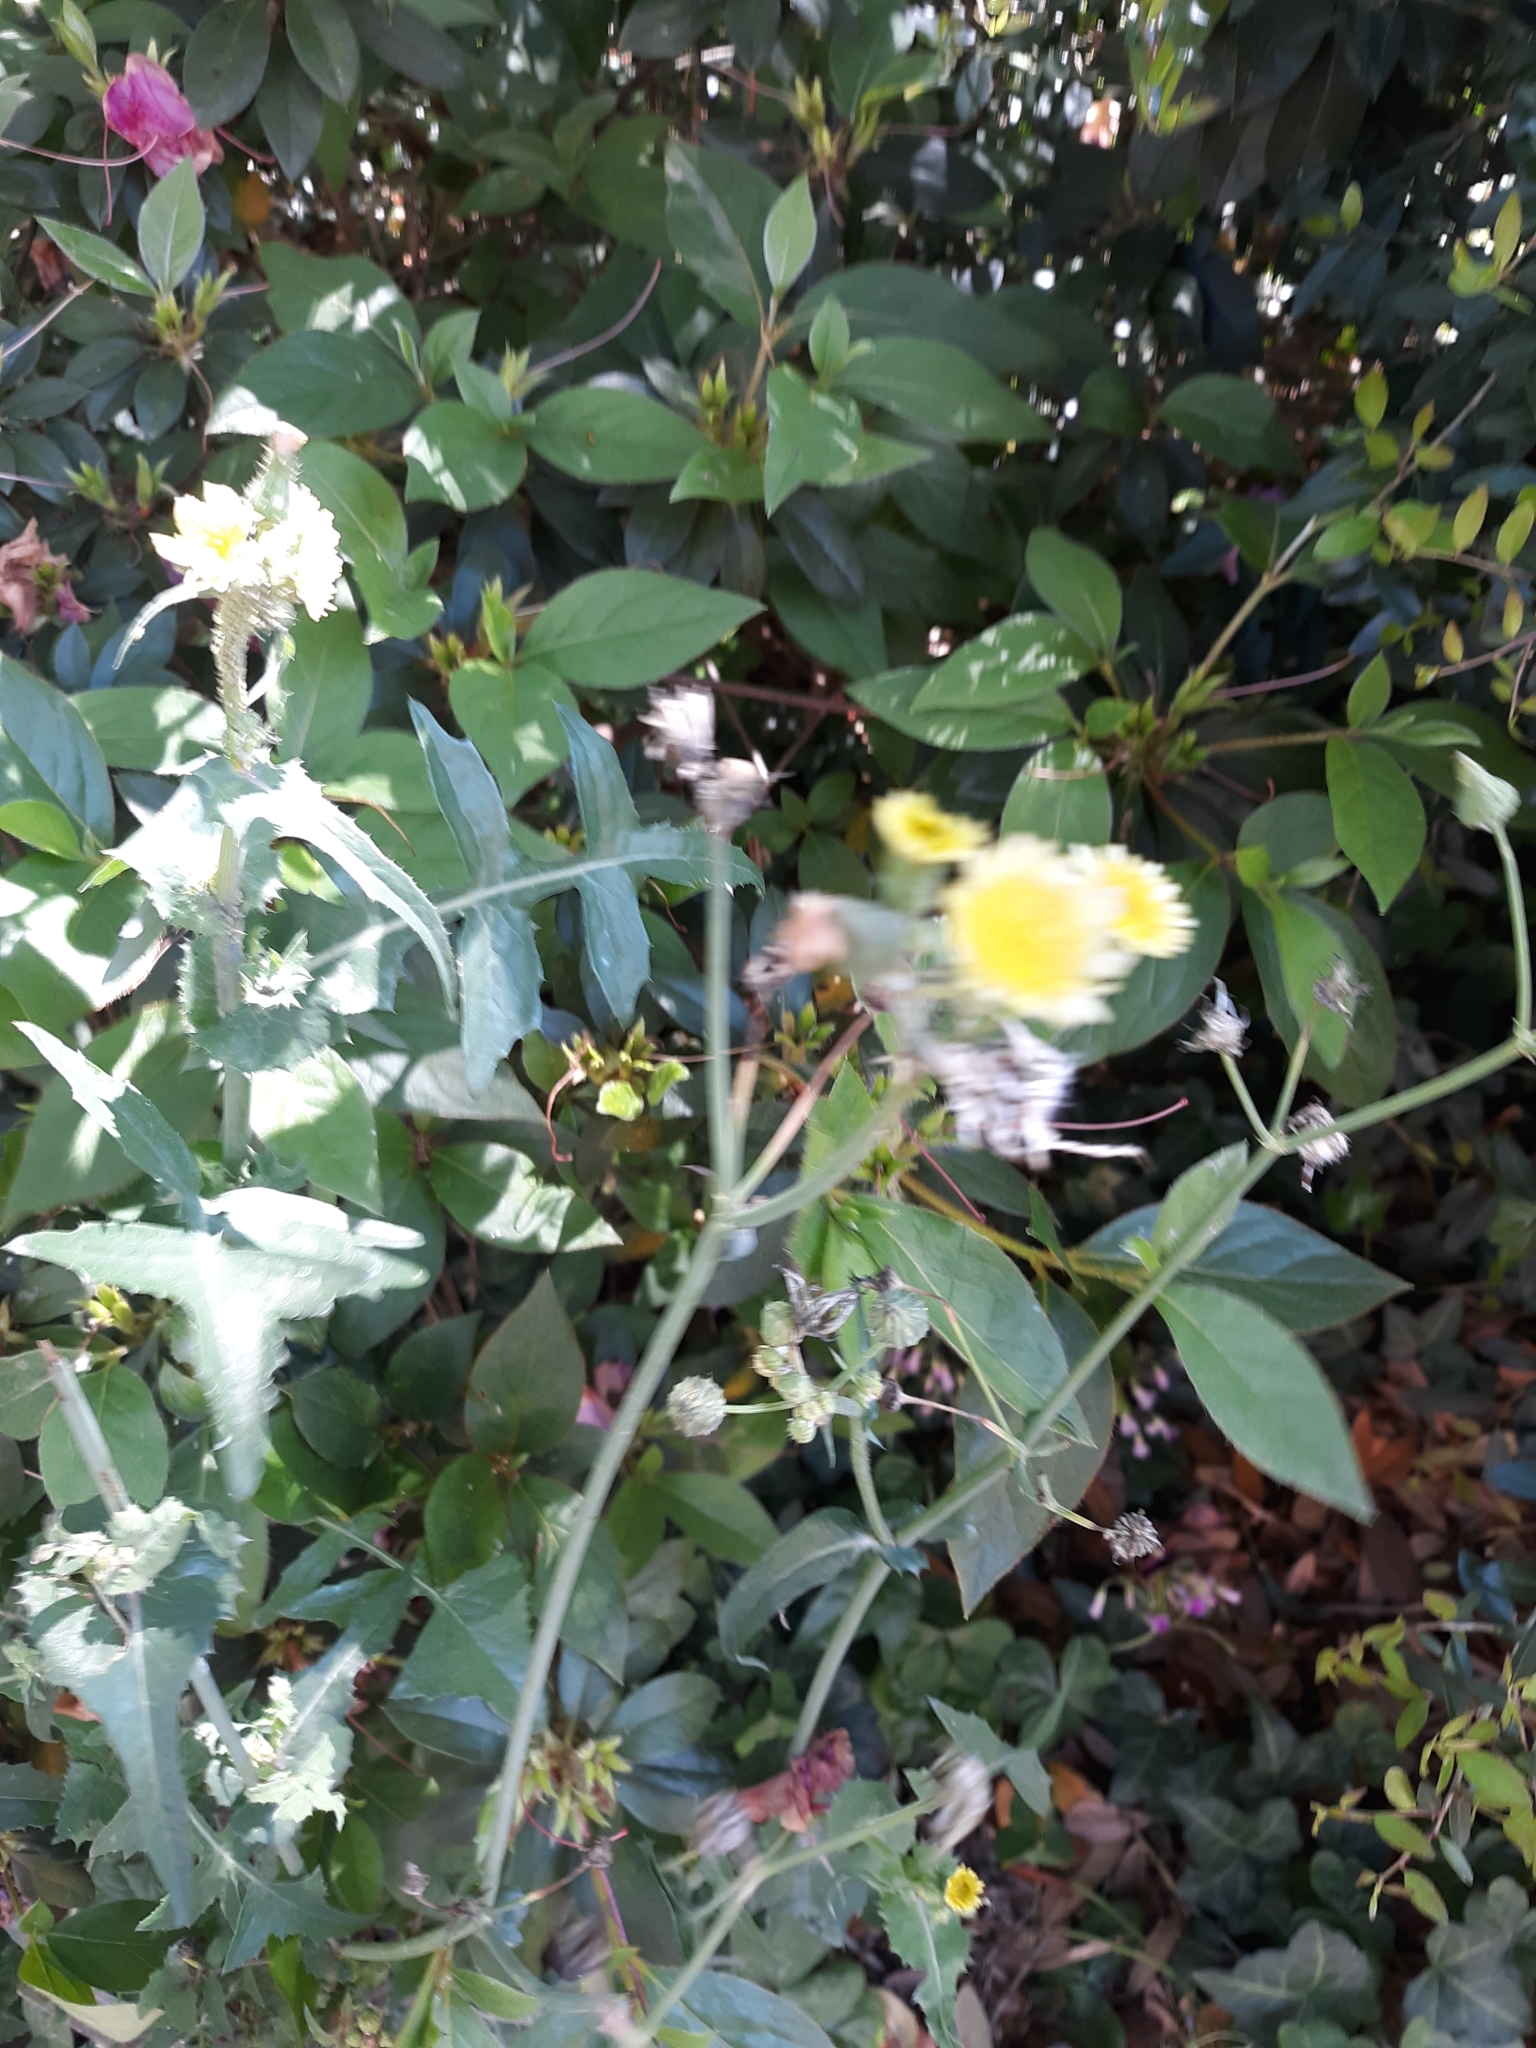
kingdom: Plantae
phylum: Tracheophyta
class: Magnoliopsida
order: Asterales
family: Asteraceae
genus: Sonchus
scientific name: Sonchus oleraceus
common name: Common sowthistle
